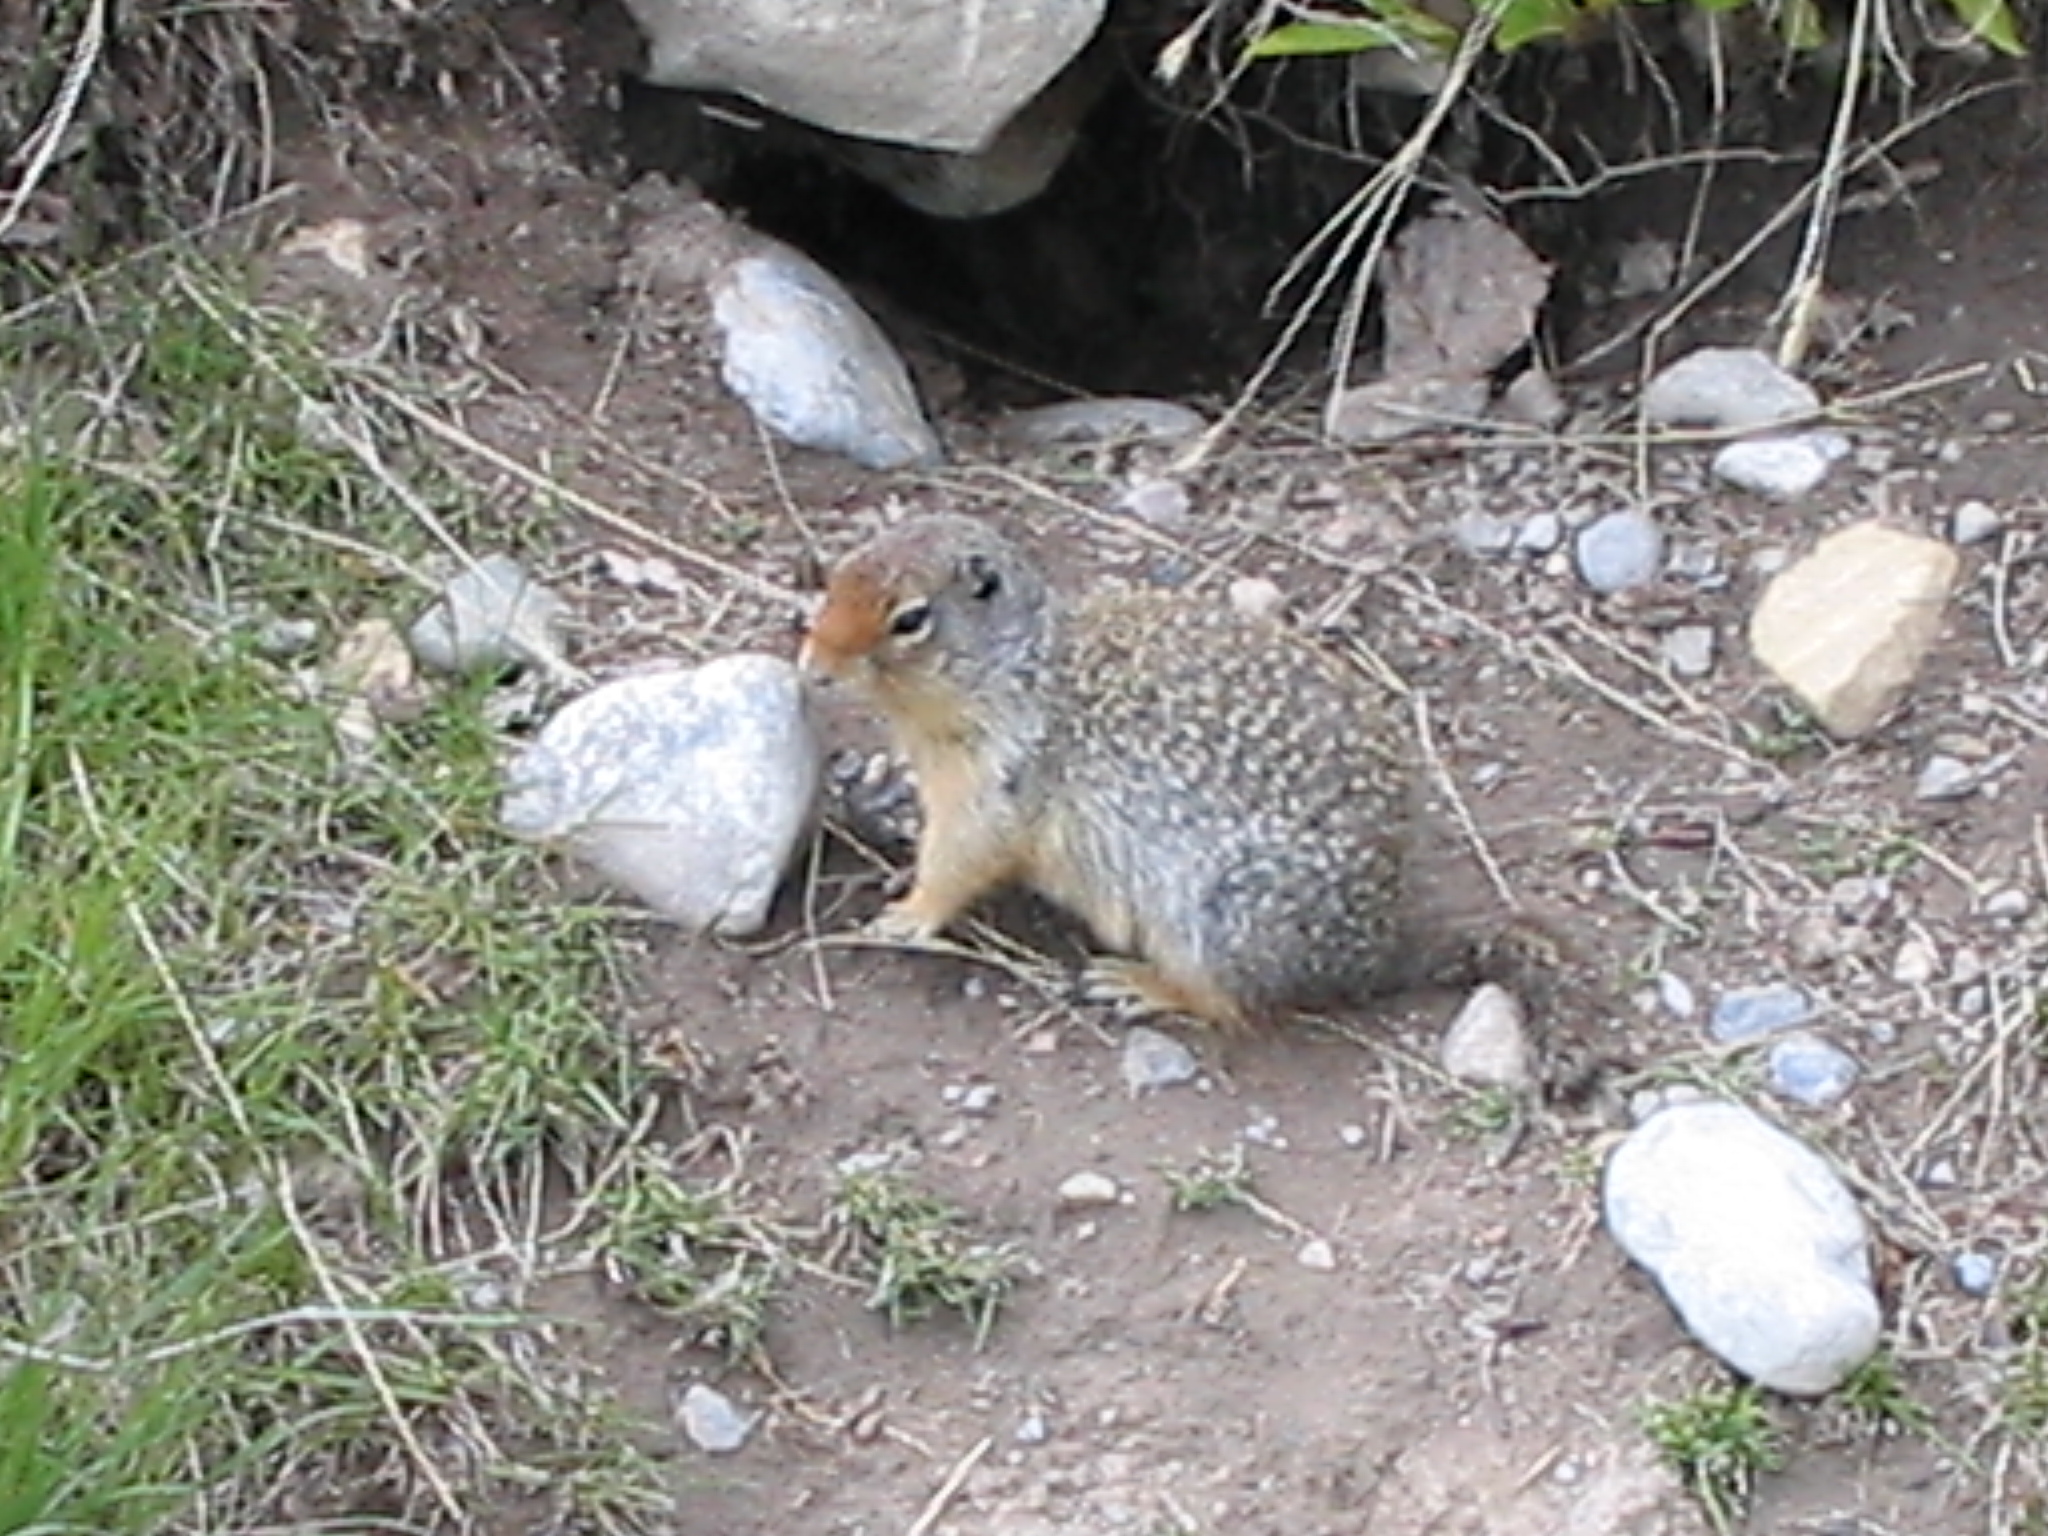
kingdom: Animalia
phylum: Chordata
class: Mammalia
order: Rodentia
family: Sciuridae
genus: Urocitellus
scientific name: Urocitellus columbianus
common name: Columbian ground squirrel
